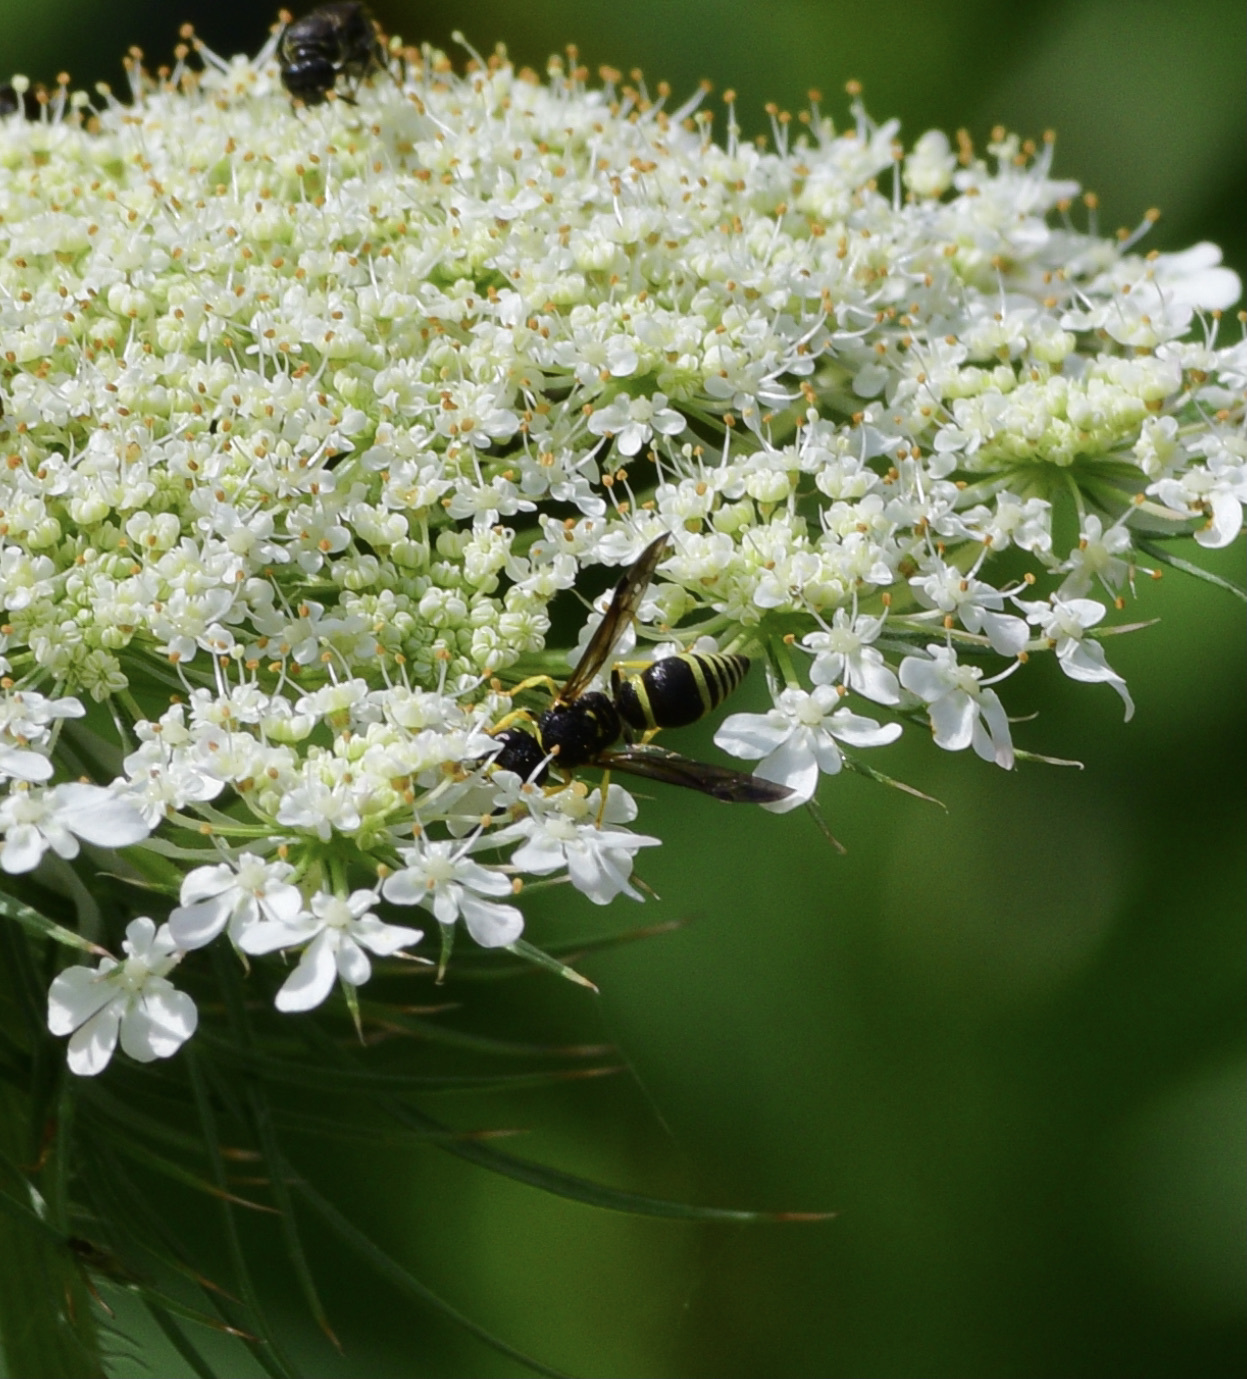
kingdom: Animalia
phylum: Arthropoda
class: Insecta
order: Hymenoptera
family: Vespidae
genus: Ancistrocerus
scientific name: Ancistrocerus
